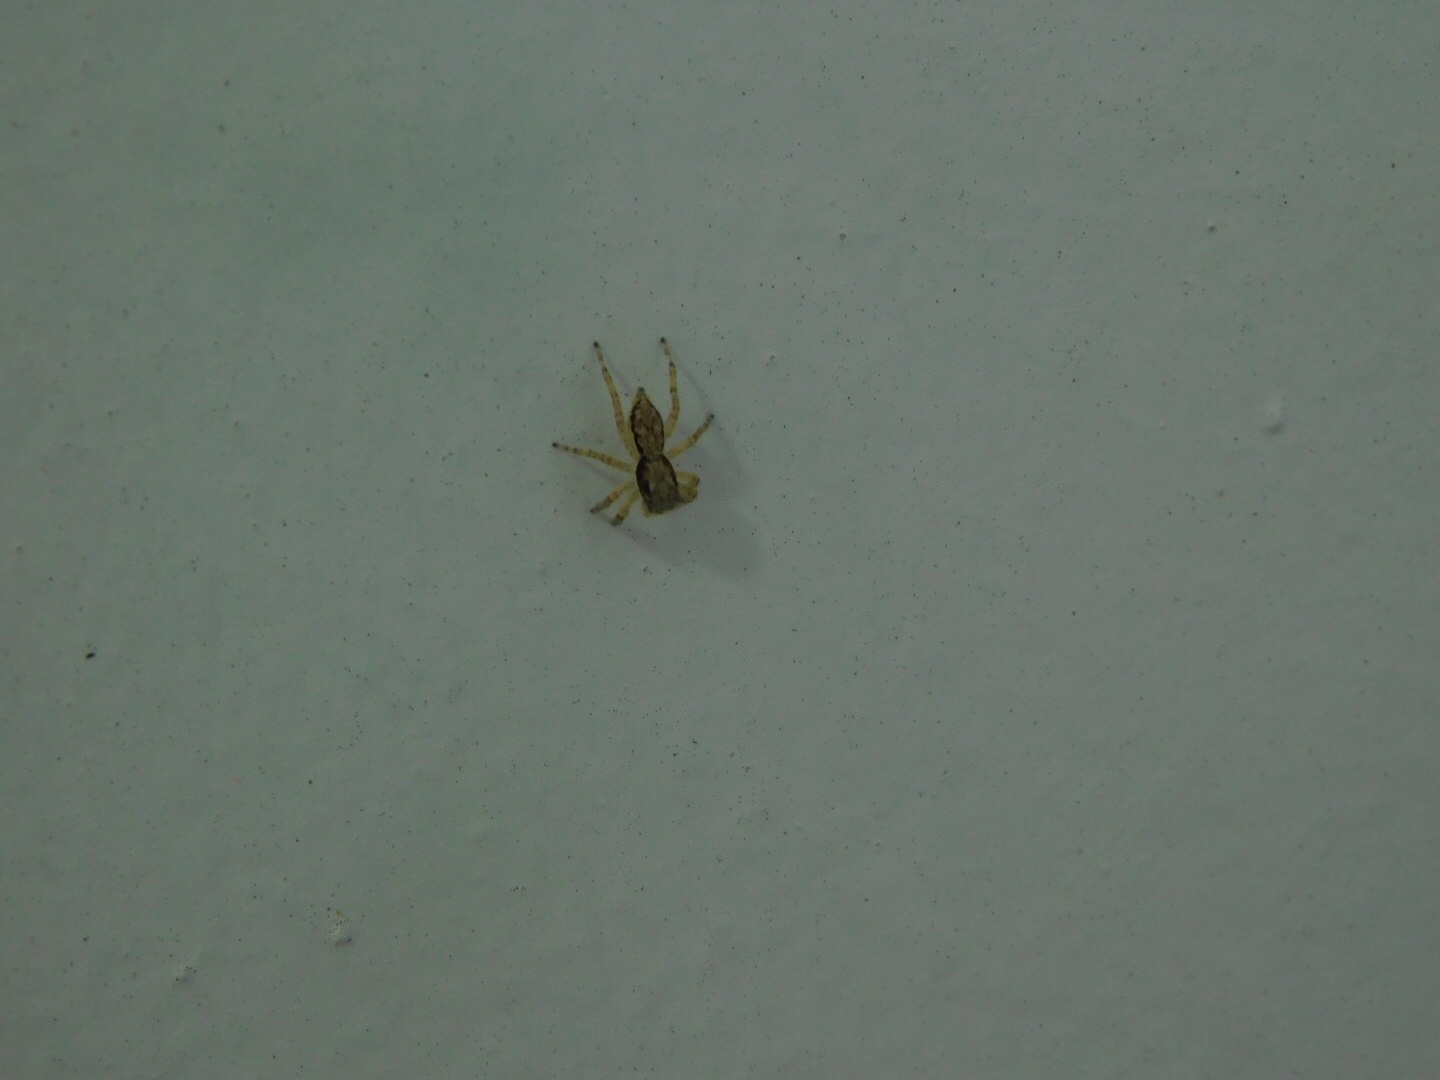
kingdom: Animalia
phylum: Arthropoda
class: Arachnida
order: Araneae
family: Salticidae
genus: Menemerus
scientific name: Menemerus bivittatus
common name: Gray wall jumper
